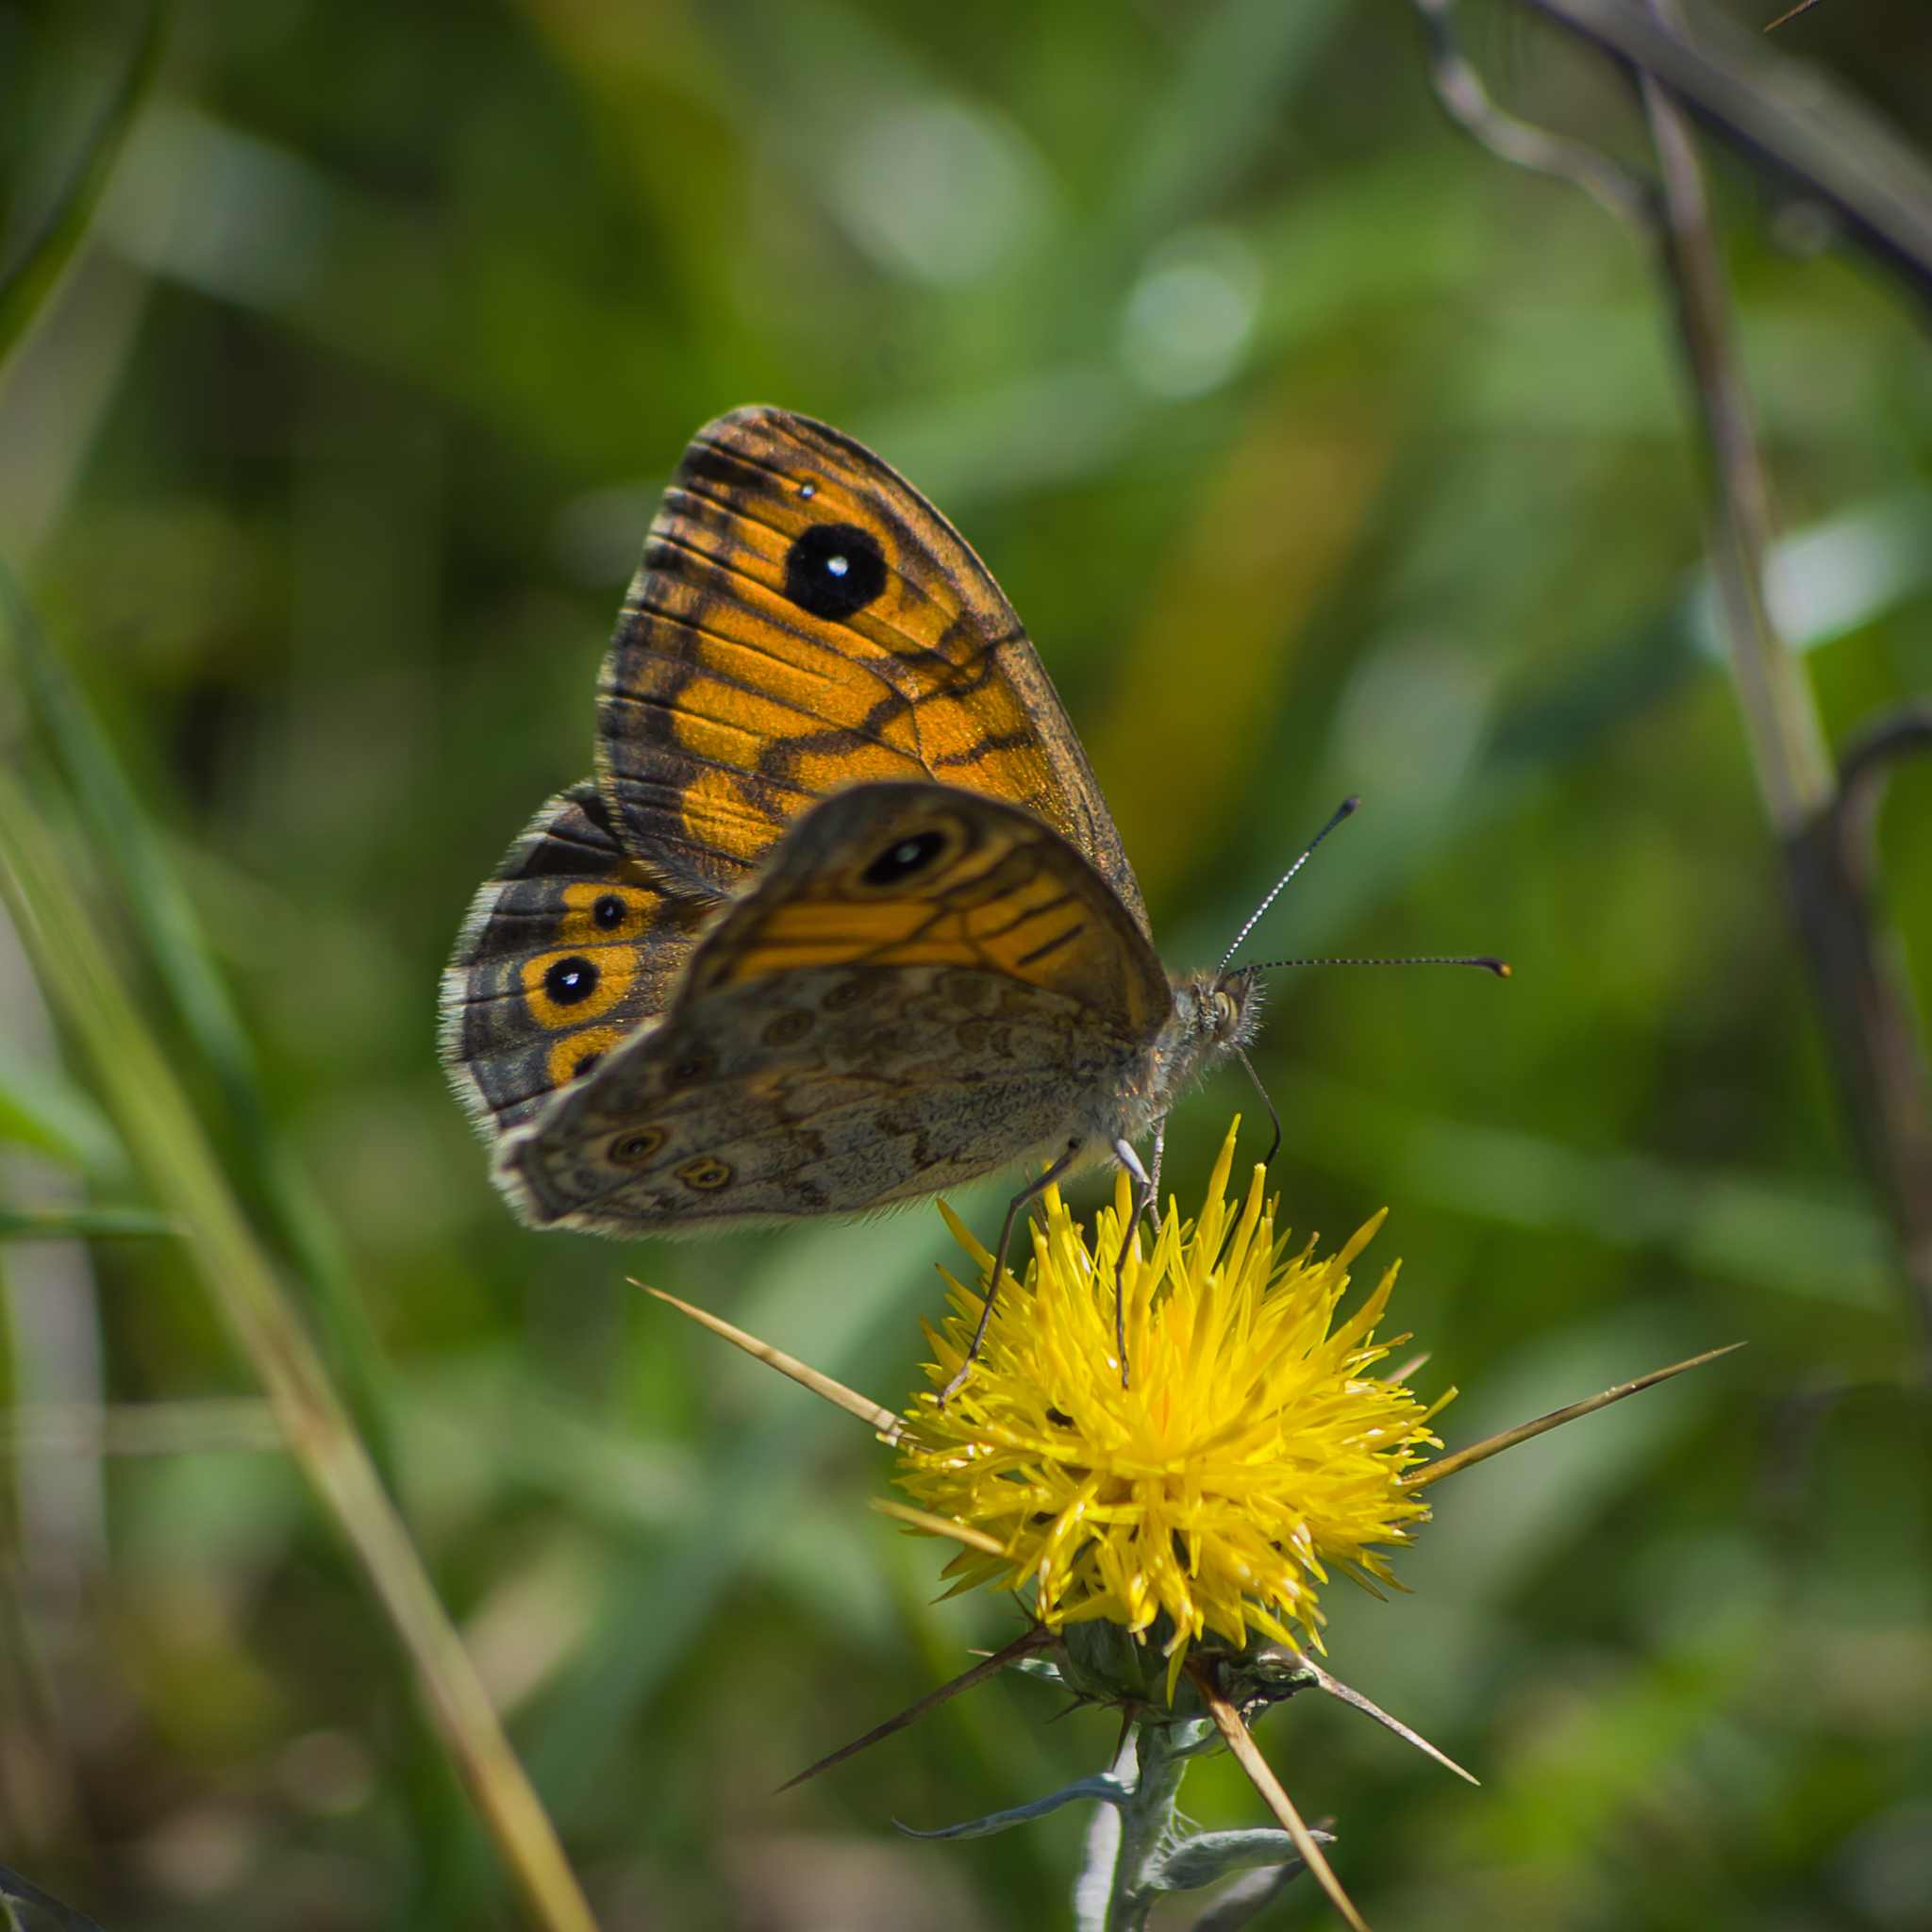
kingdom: Animalia
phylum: Arthropoda
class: Insecta
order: Lepidoptera
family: Nymphalidae
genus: Pararge
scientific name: Pararge Lasiommata megera
